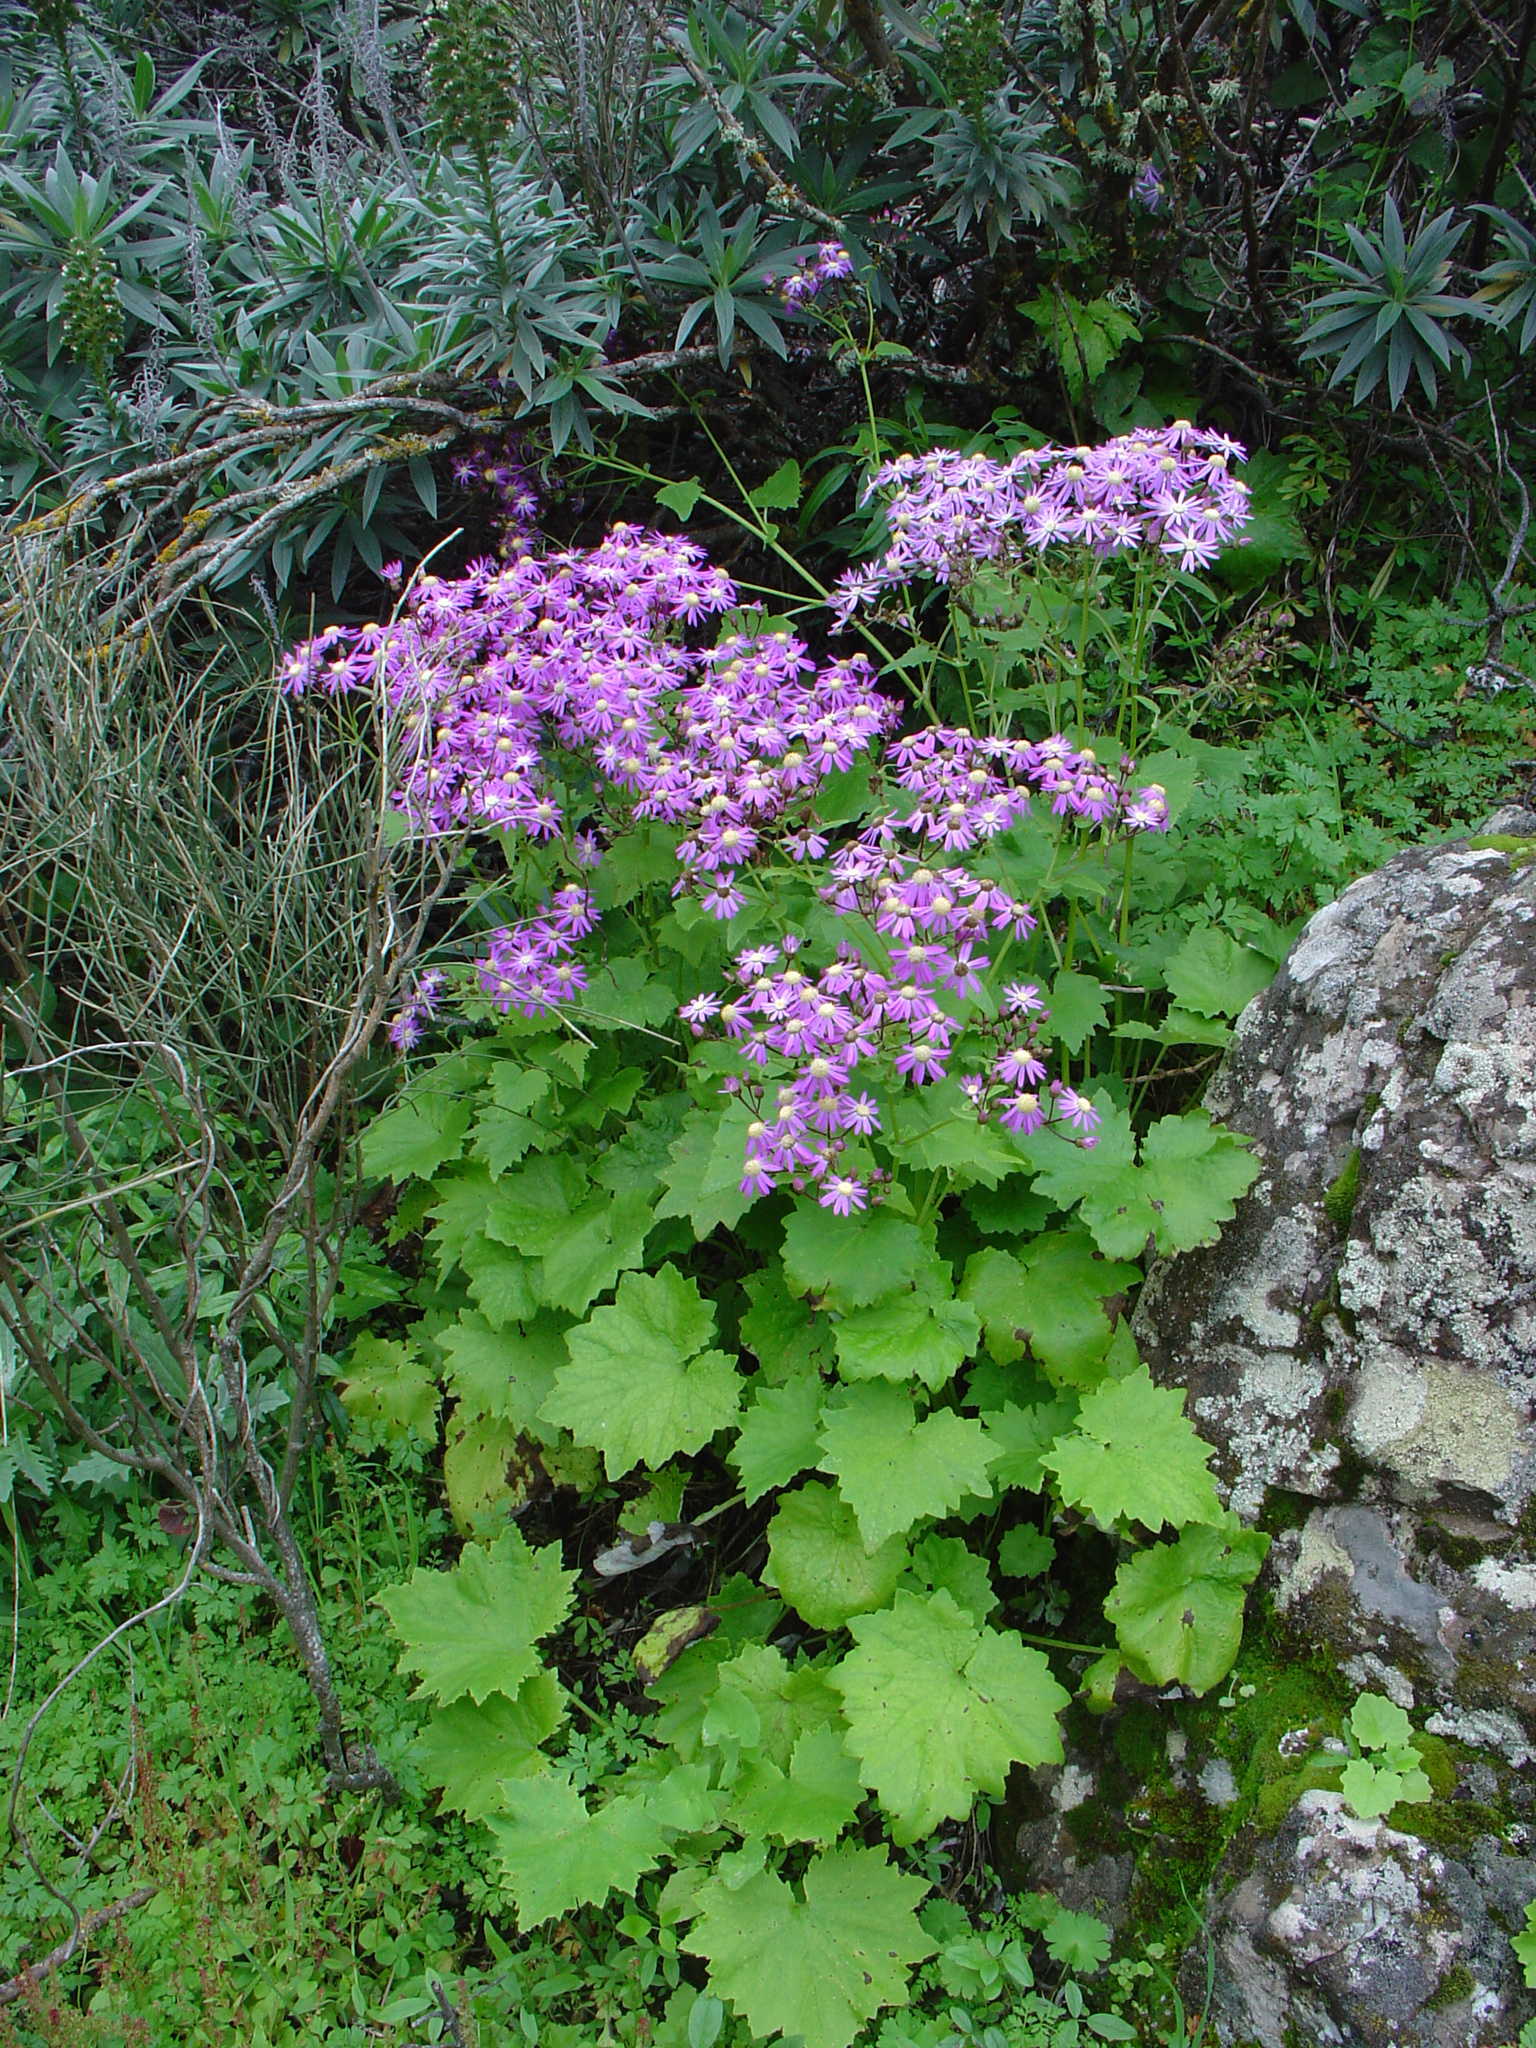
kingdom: Plantae
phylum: Tracheophyta
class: Magnoliopsida
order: Asterales
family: Asteraceae
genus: Pericallis
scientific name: Pericallis echinata
